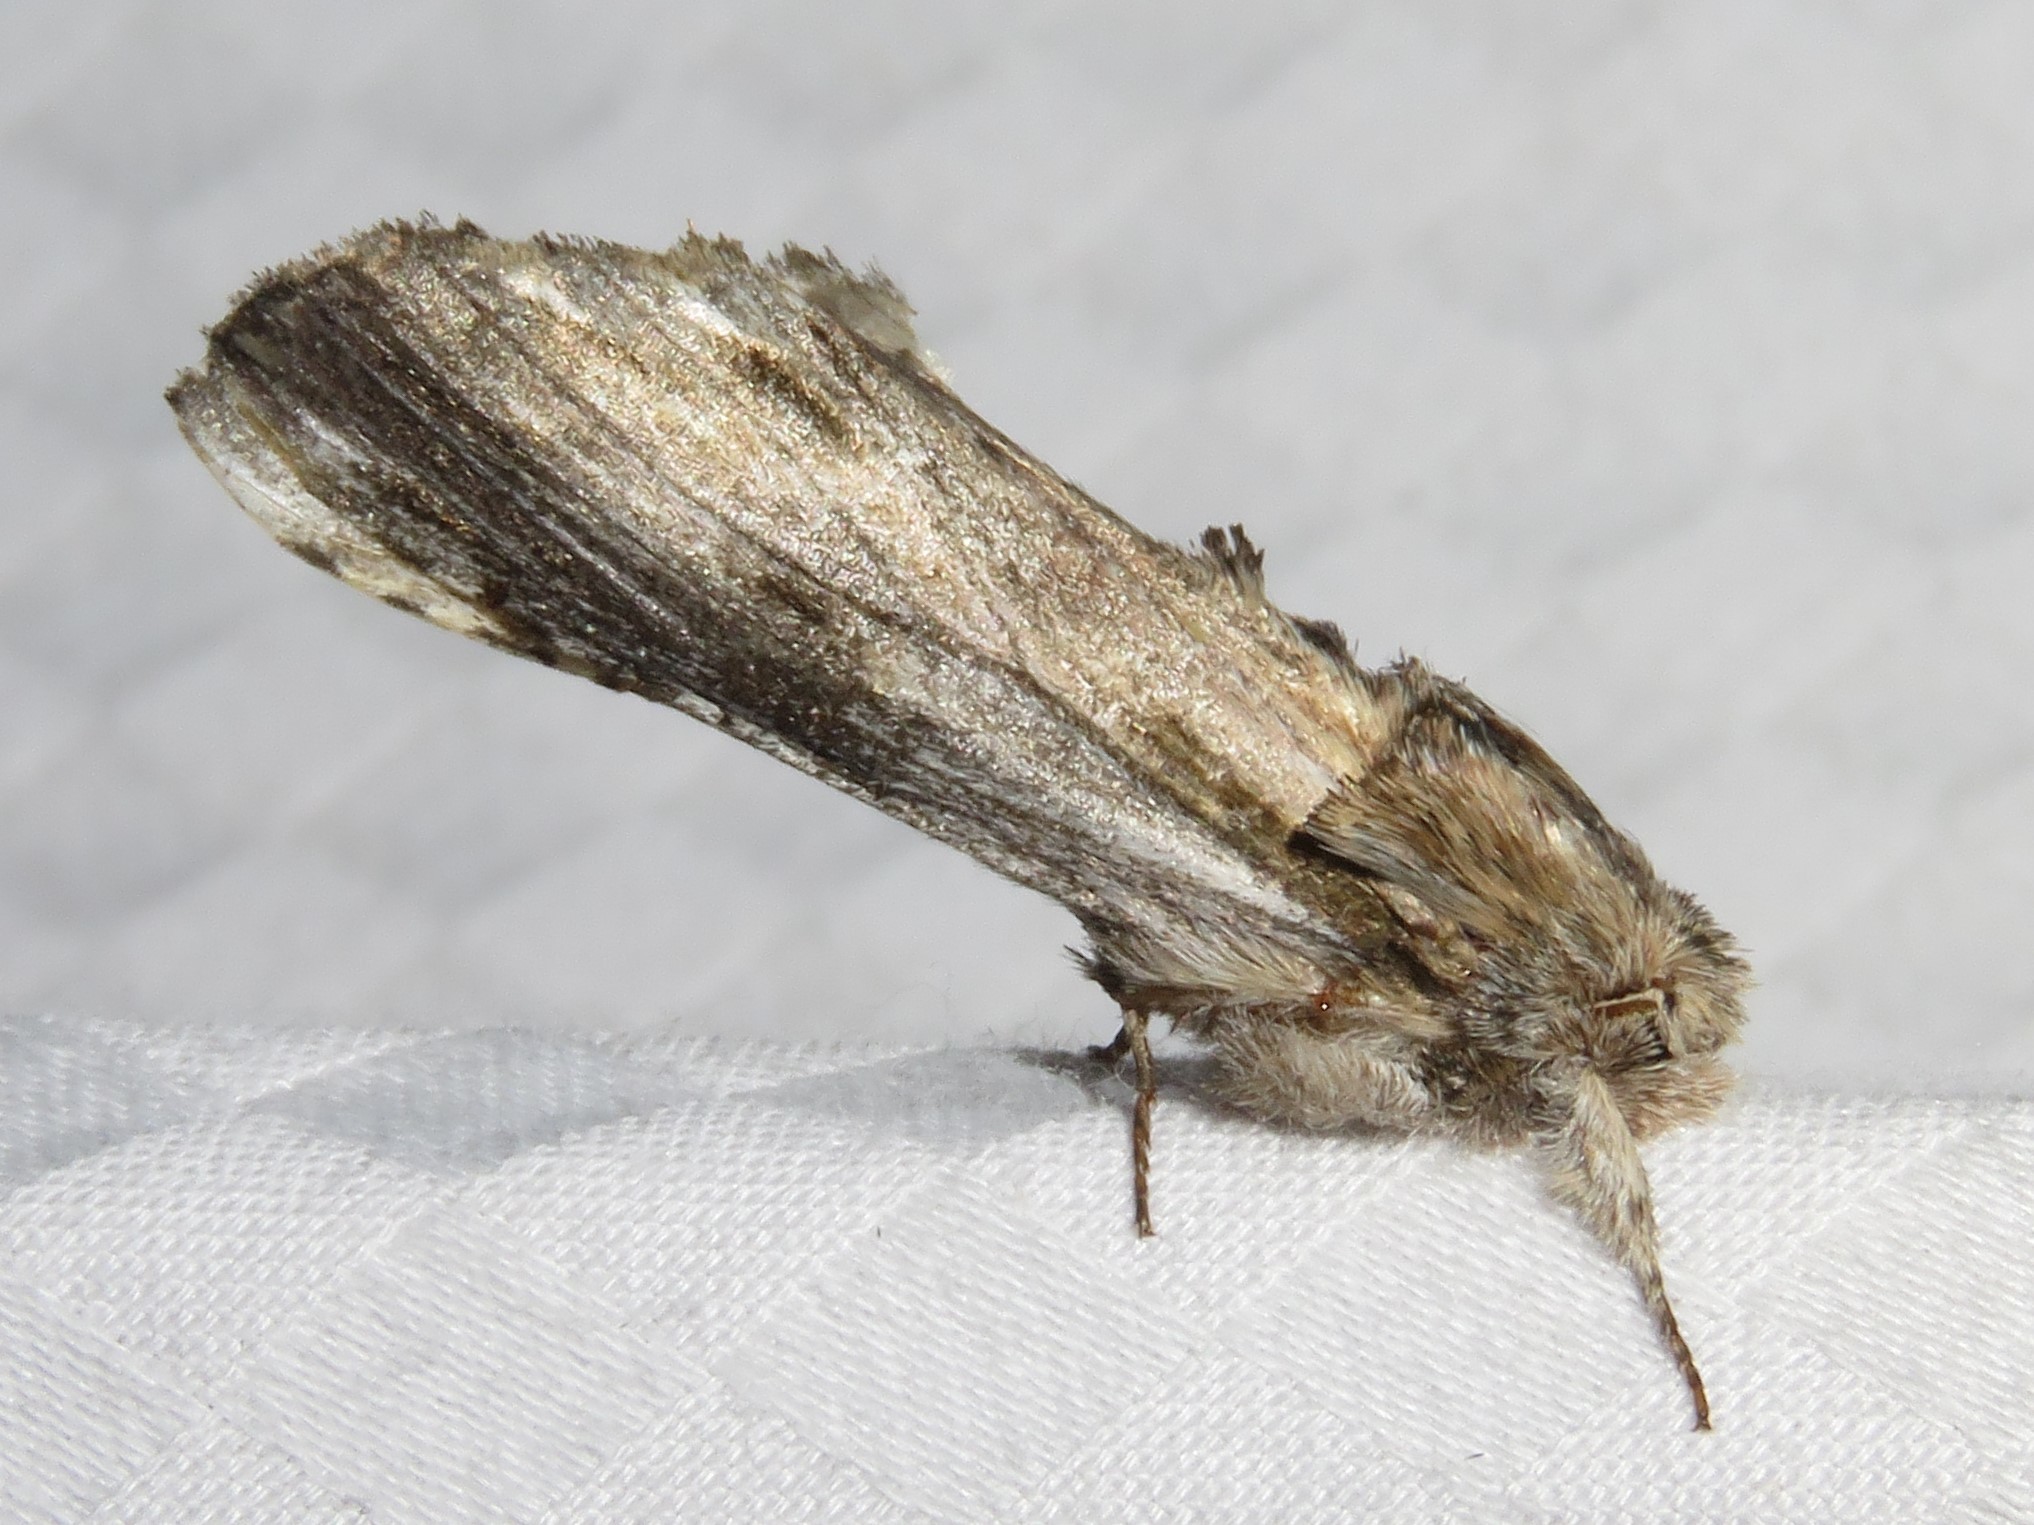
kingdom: Animalia
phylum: Arthropoda
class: Insecta
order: Lepidoptera
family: Notodontidae
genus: Oligocentria
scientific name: Oligocentria Ianassa lignicolor
